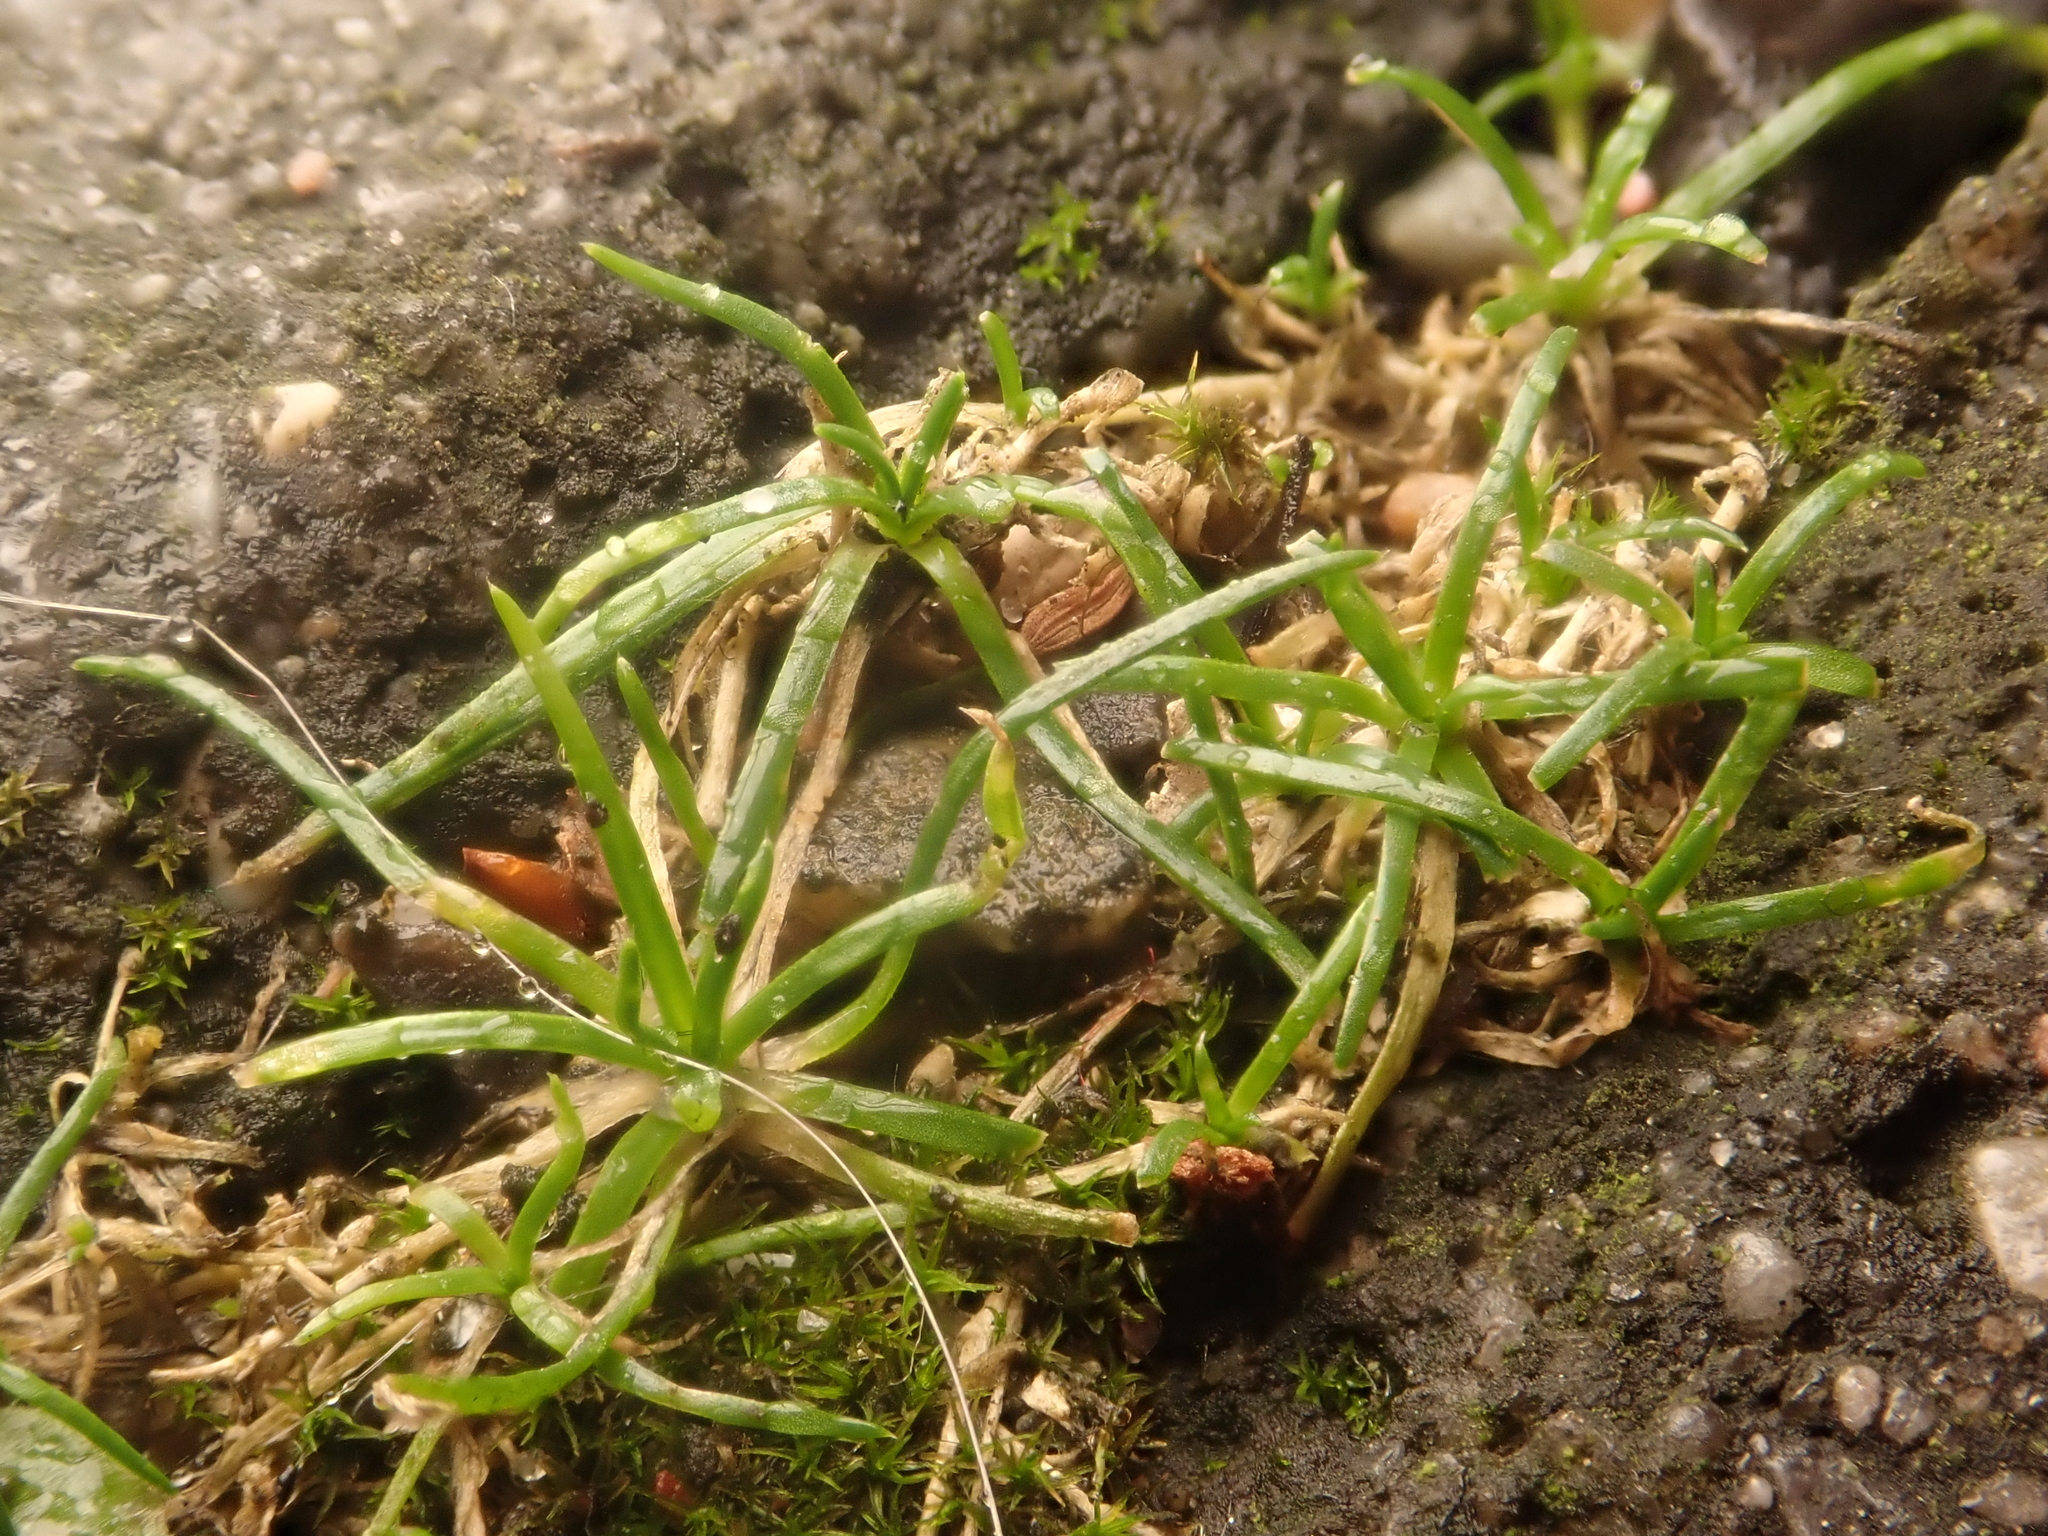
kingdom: Plantae
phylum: Tracheophyta
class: Magnoliopsida
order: Caryophyllales
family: Caryophyllaceae
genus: Sagina
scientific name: Sagina procumbens
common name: Procumbent pearlwort
